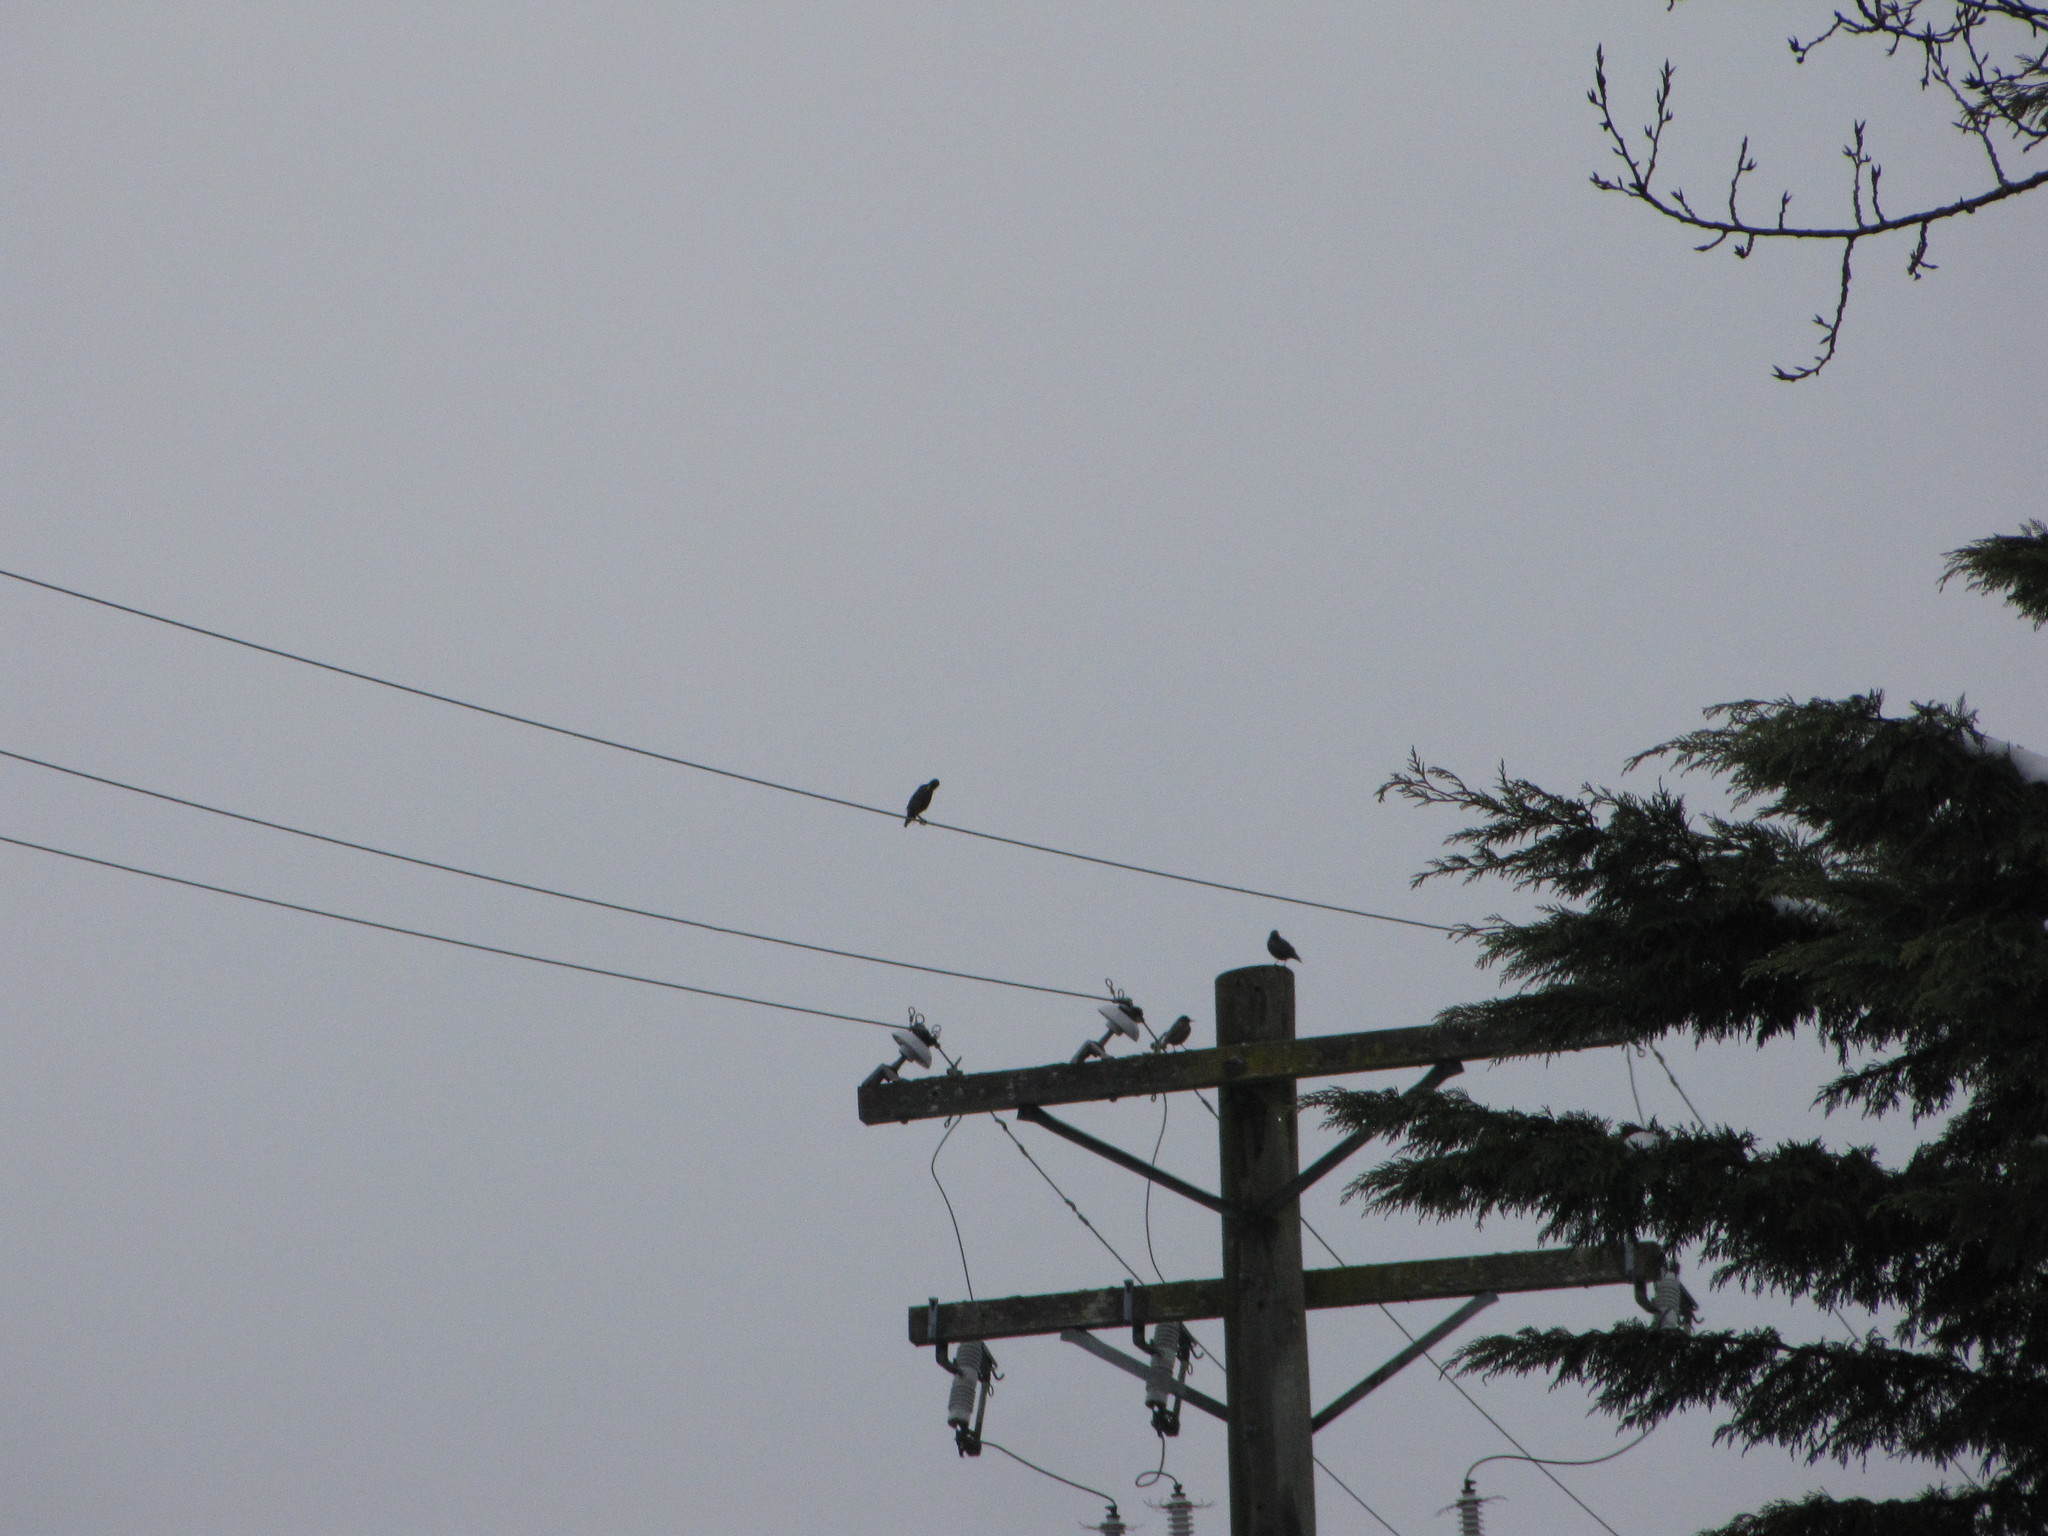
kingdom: Animalia
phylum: Chordata
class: Aves
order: Passeriformes
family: Sturnidae
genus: Sturnus
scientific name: Sturnus vulgaris
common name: Common starling
